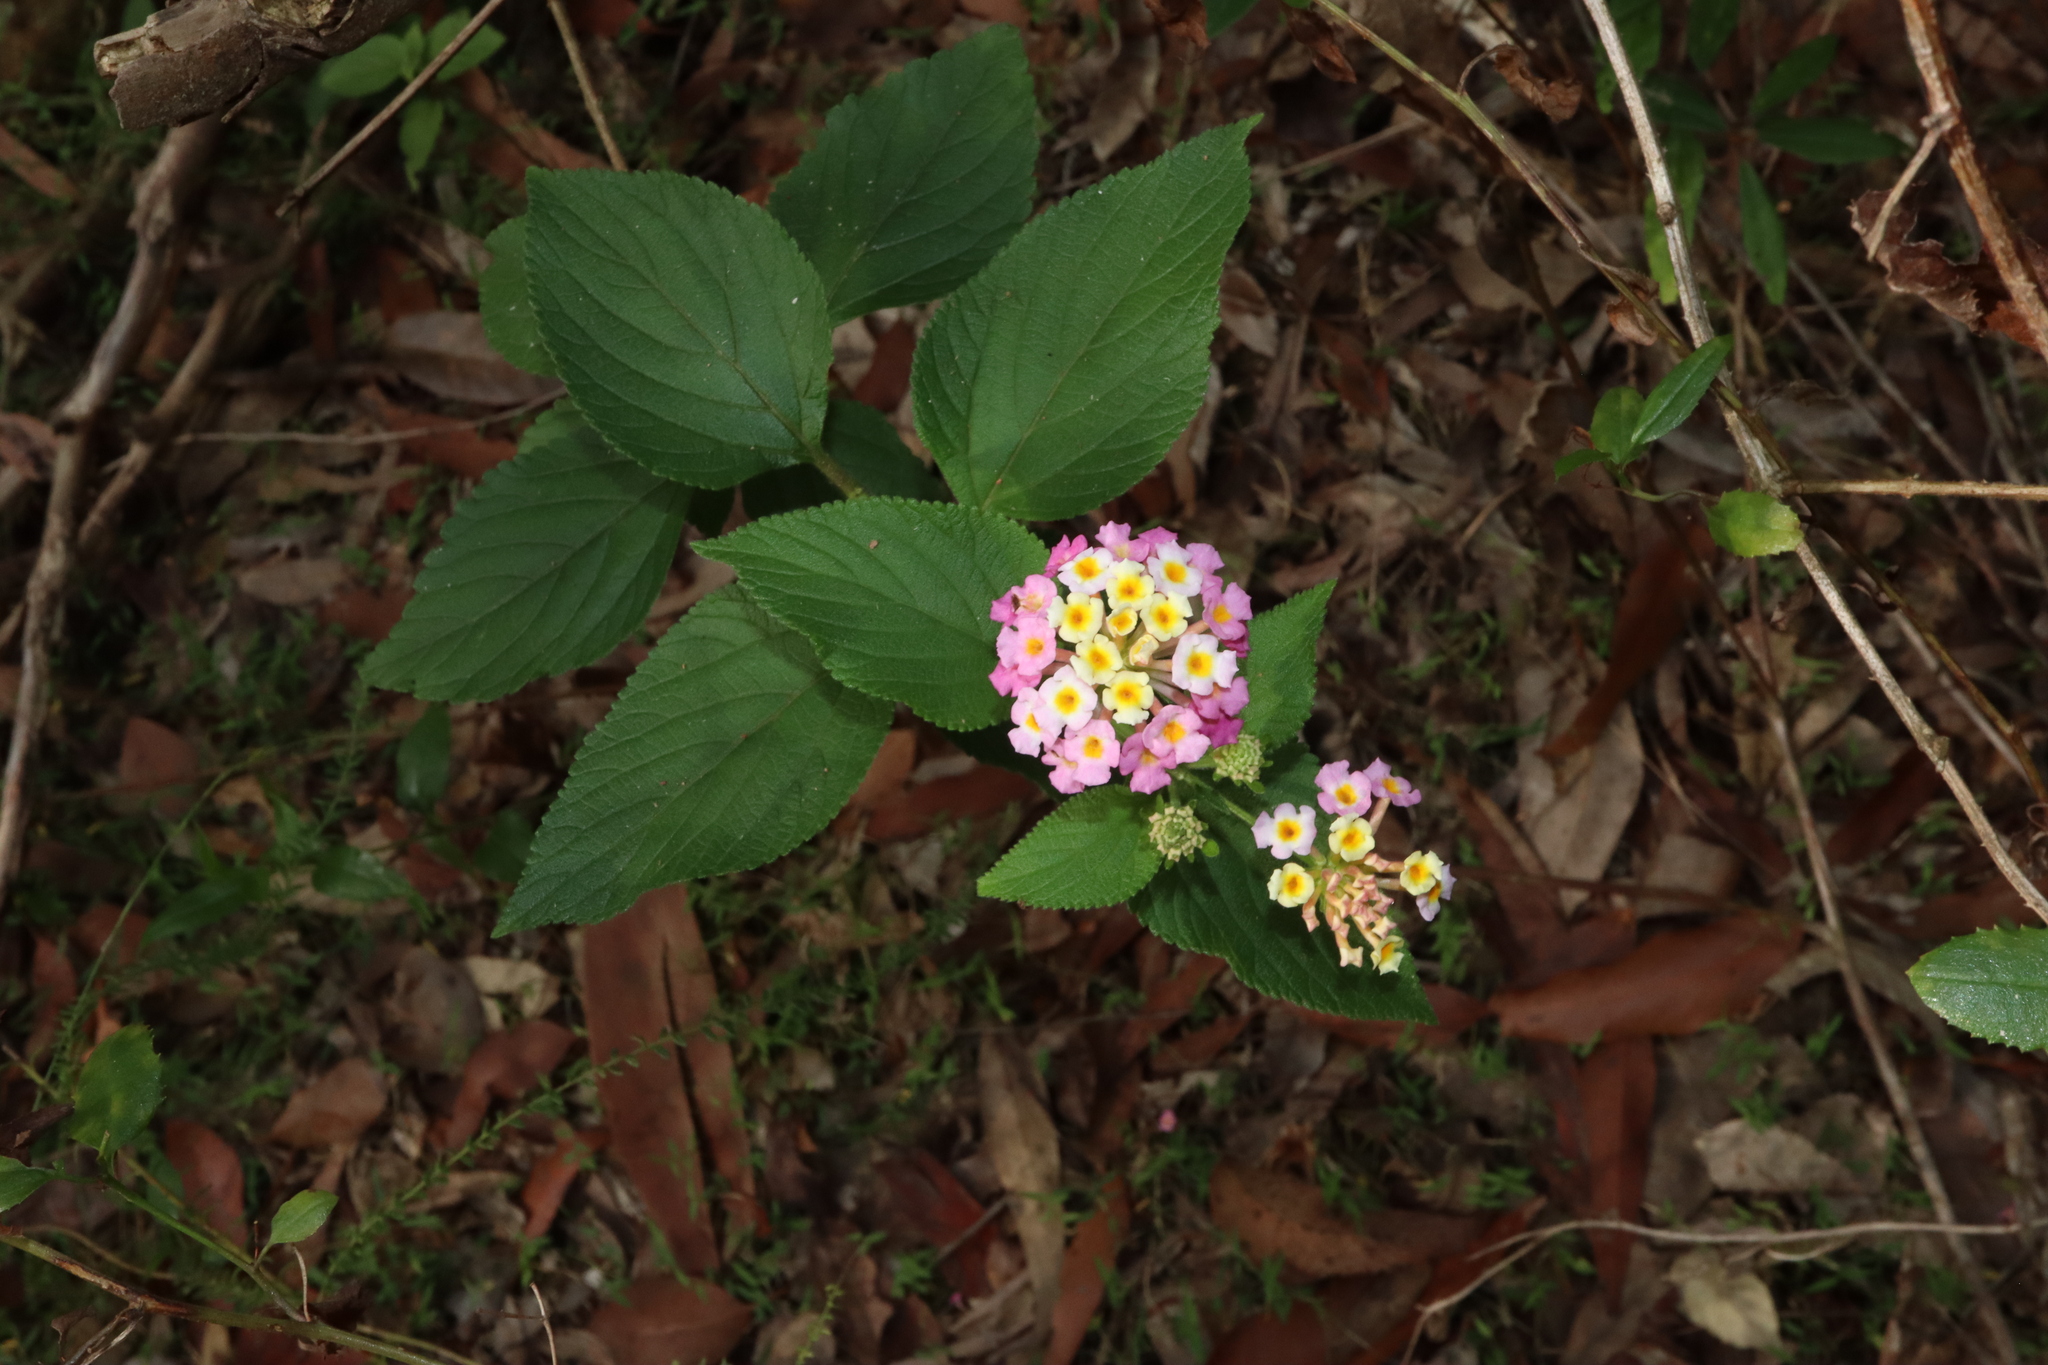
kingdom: Plantae
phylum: Tracheophyta
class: Magnoliopsida
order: Lamiales
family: Verbenaceae
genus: Lantana
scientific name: Lantana camara
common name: Lantana
